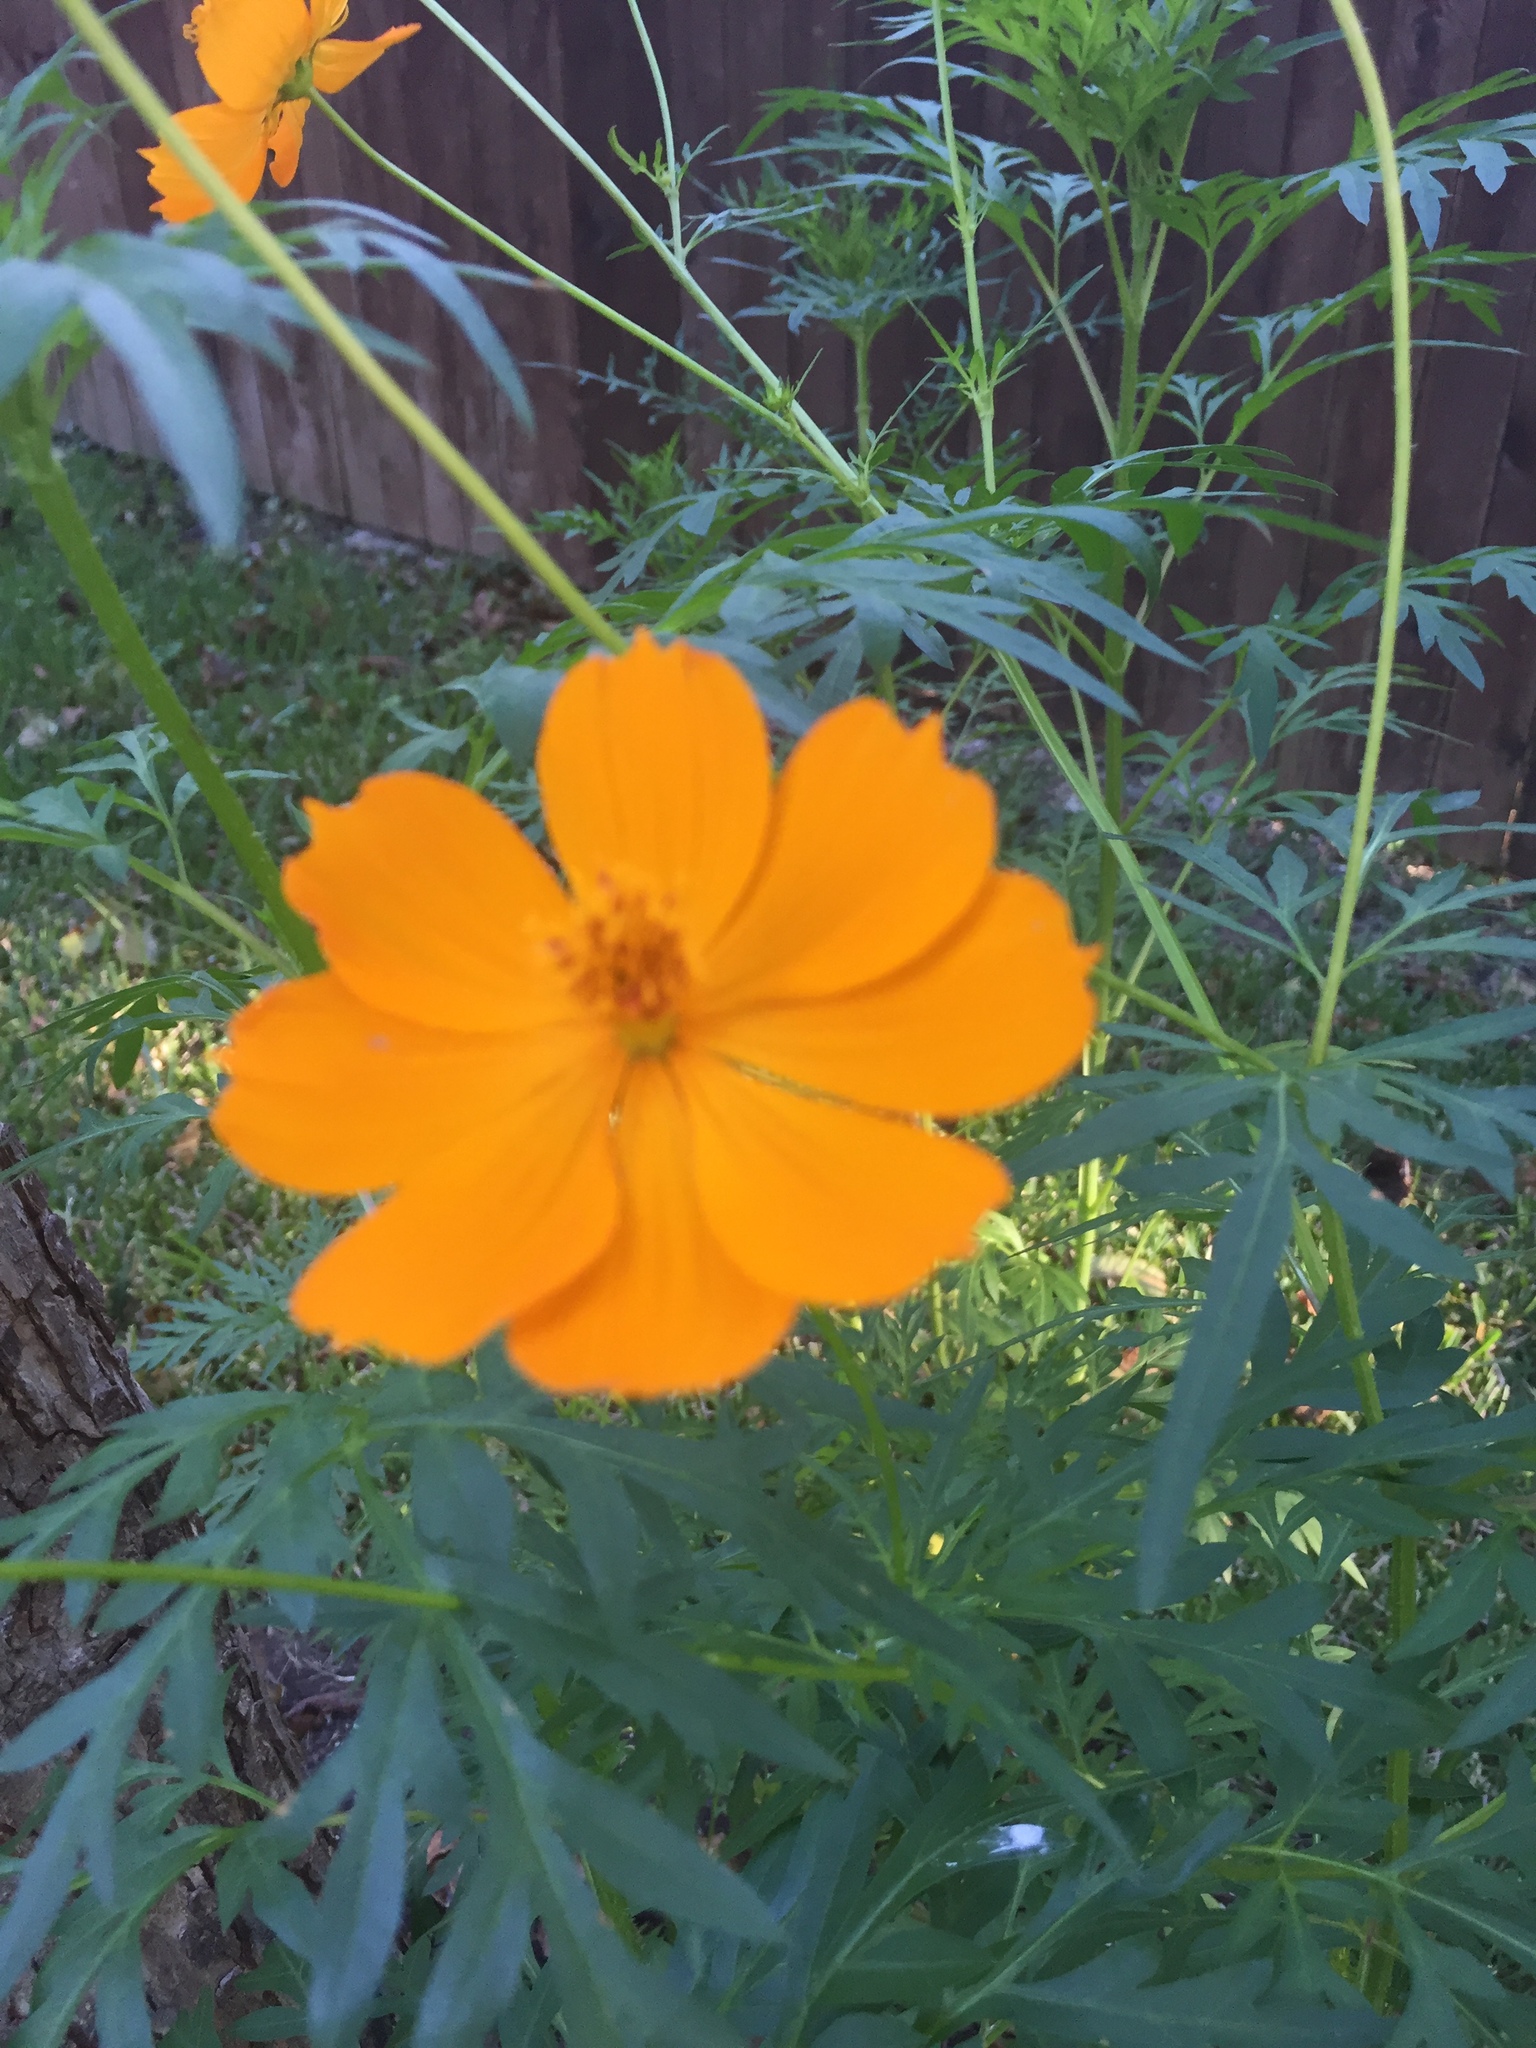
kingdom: Plantae
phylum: Tracheophyta
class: Magnoliopsida
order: Asterales
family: Asteraceae
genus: Cosmos
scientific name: Cosmos sulphureus
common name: Sulphur cosmos
